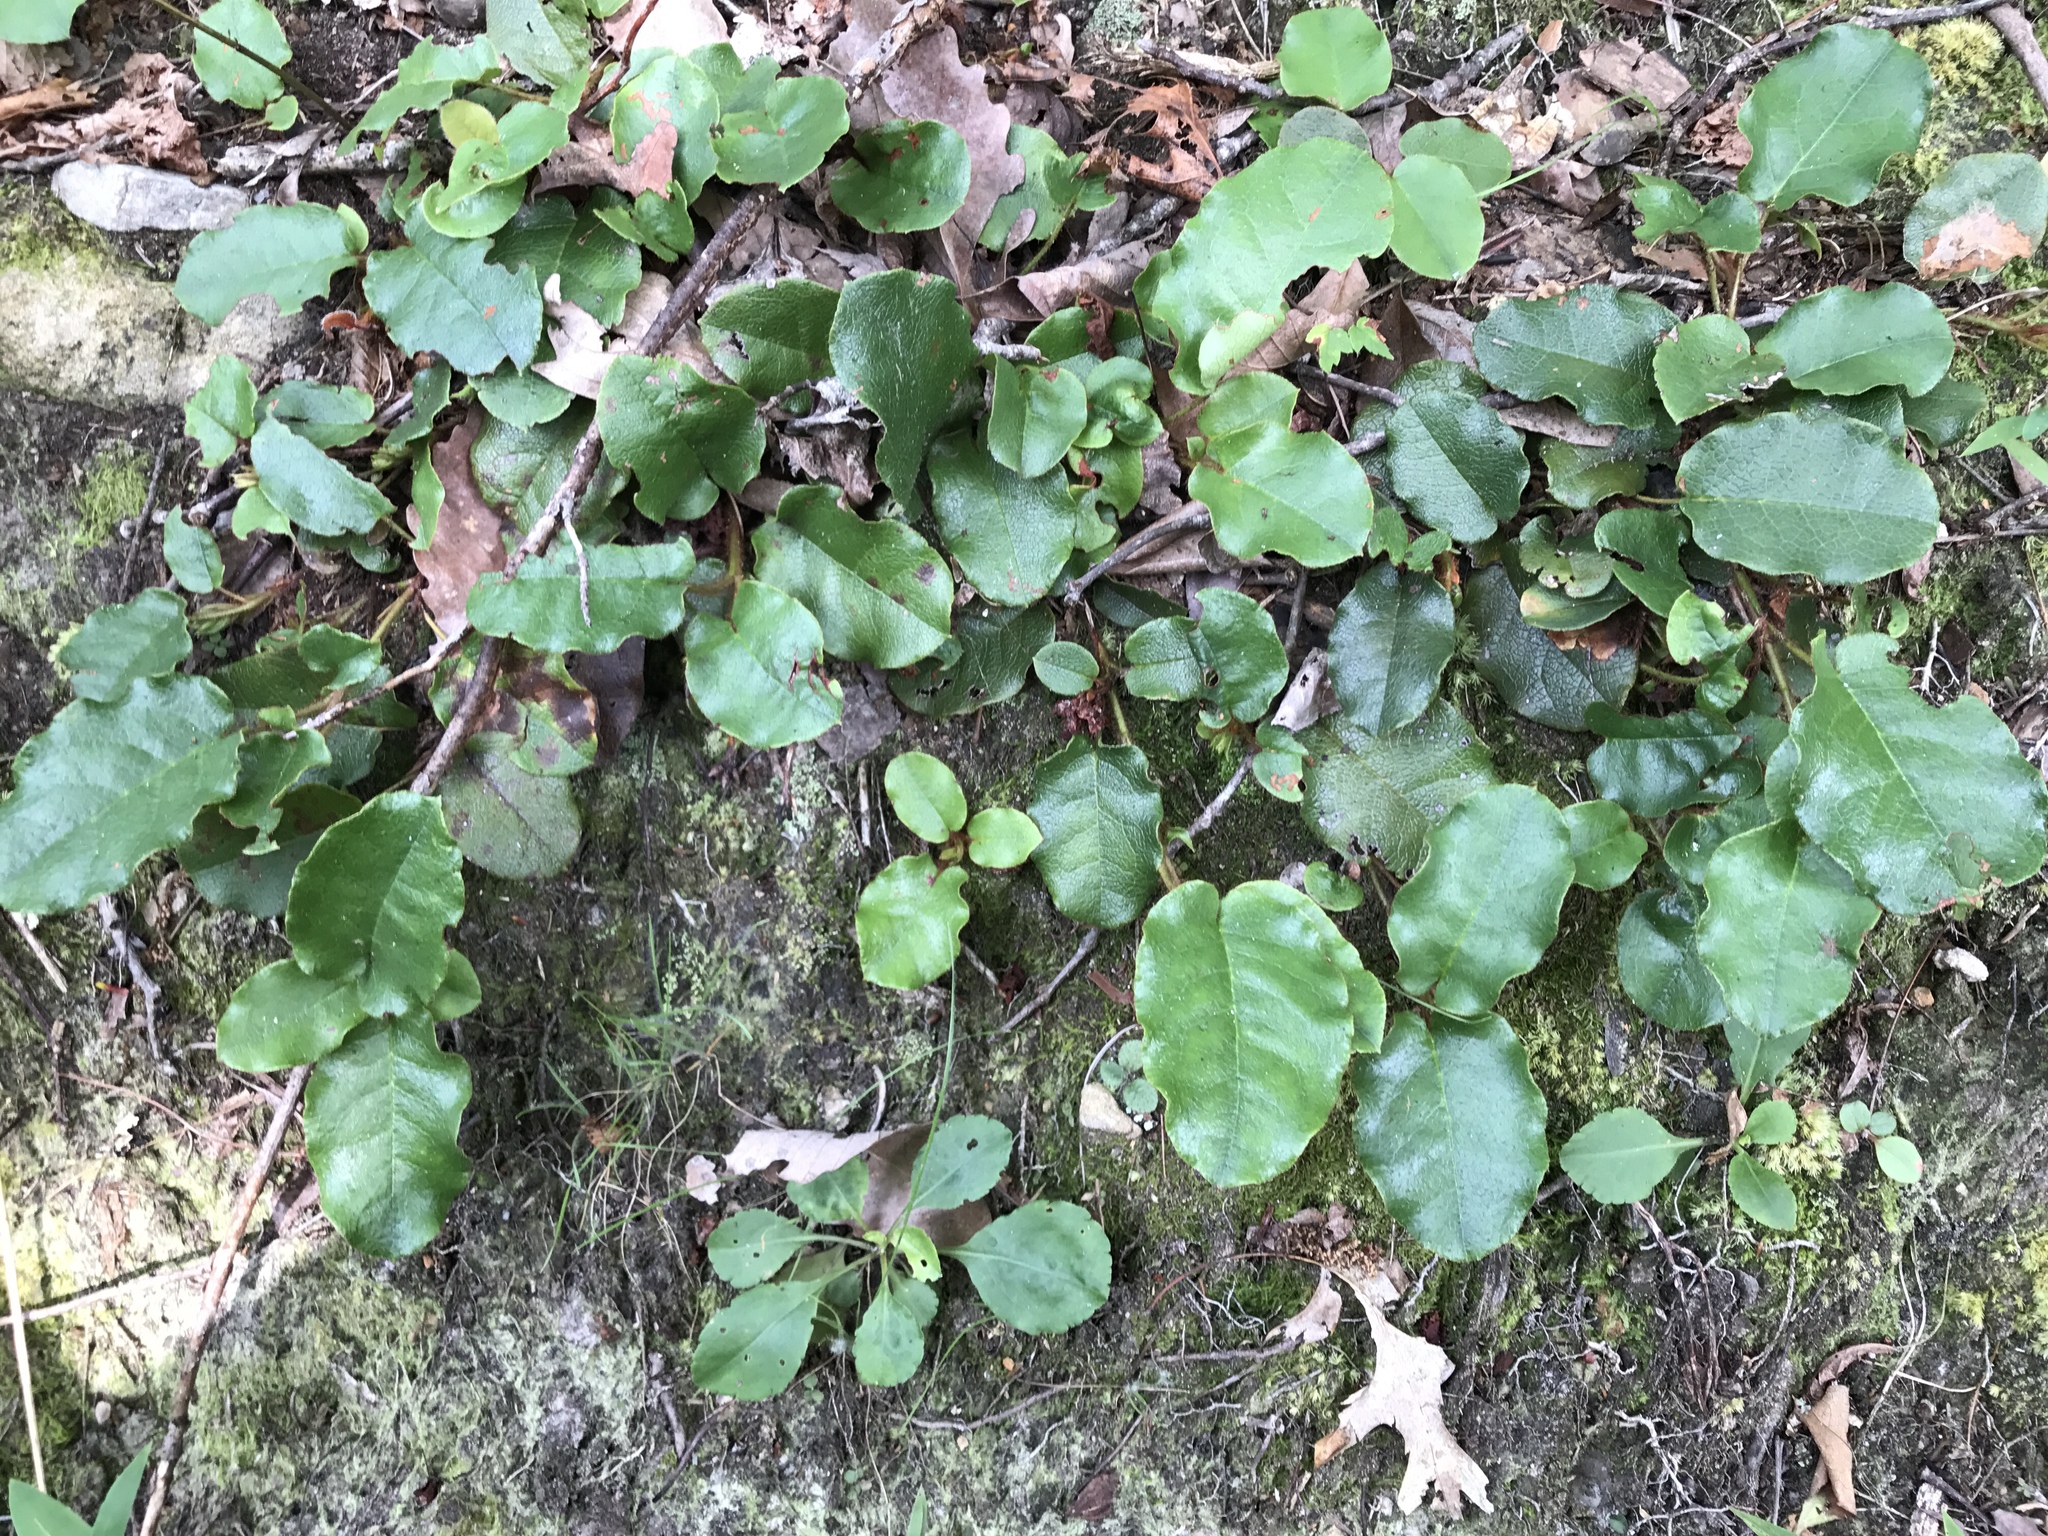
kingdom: Plantae
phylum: Tracheophyta
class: Magnoliopsida
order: Ericales
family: Ericaceae
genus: Epigaea
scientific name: Epigaea repens
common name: Gravelroot
